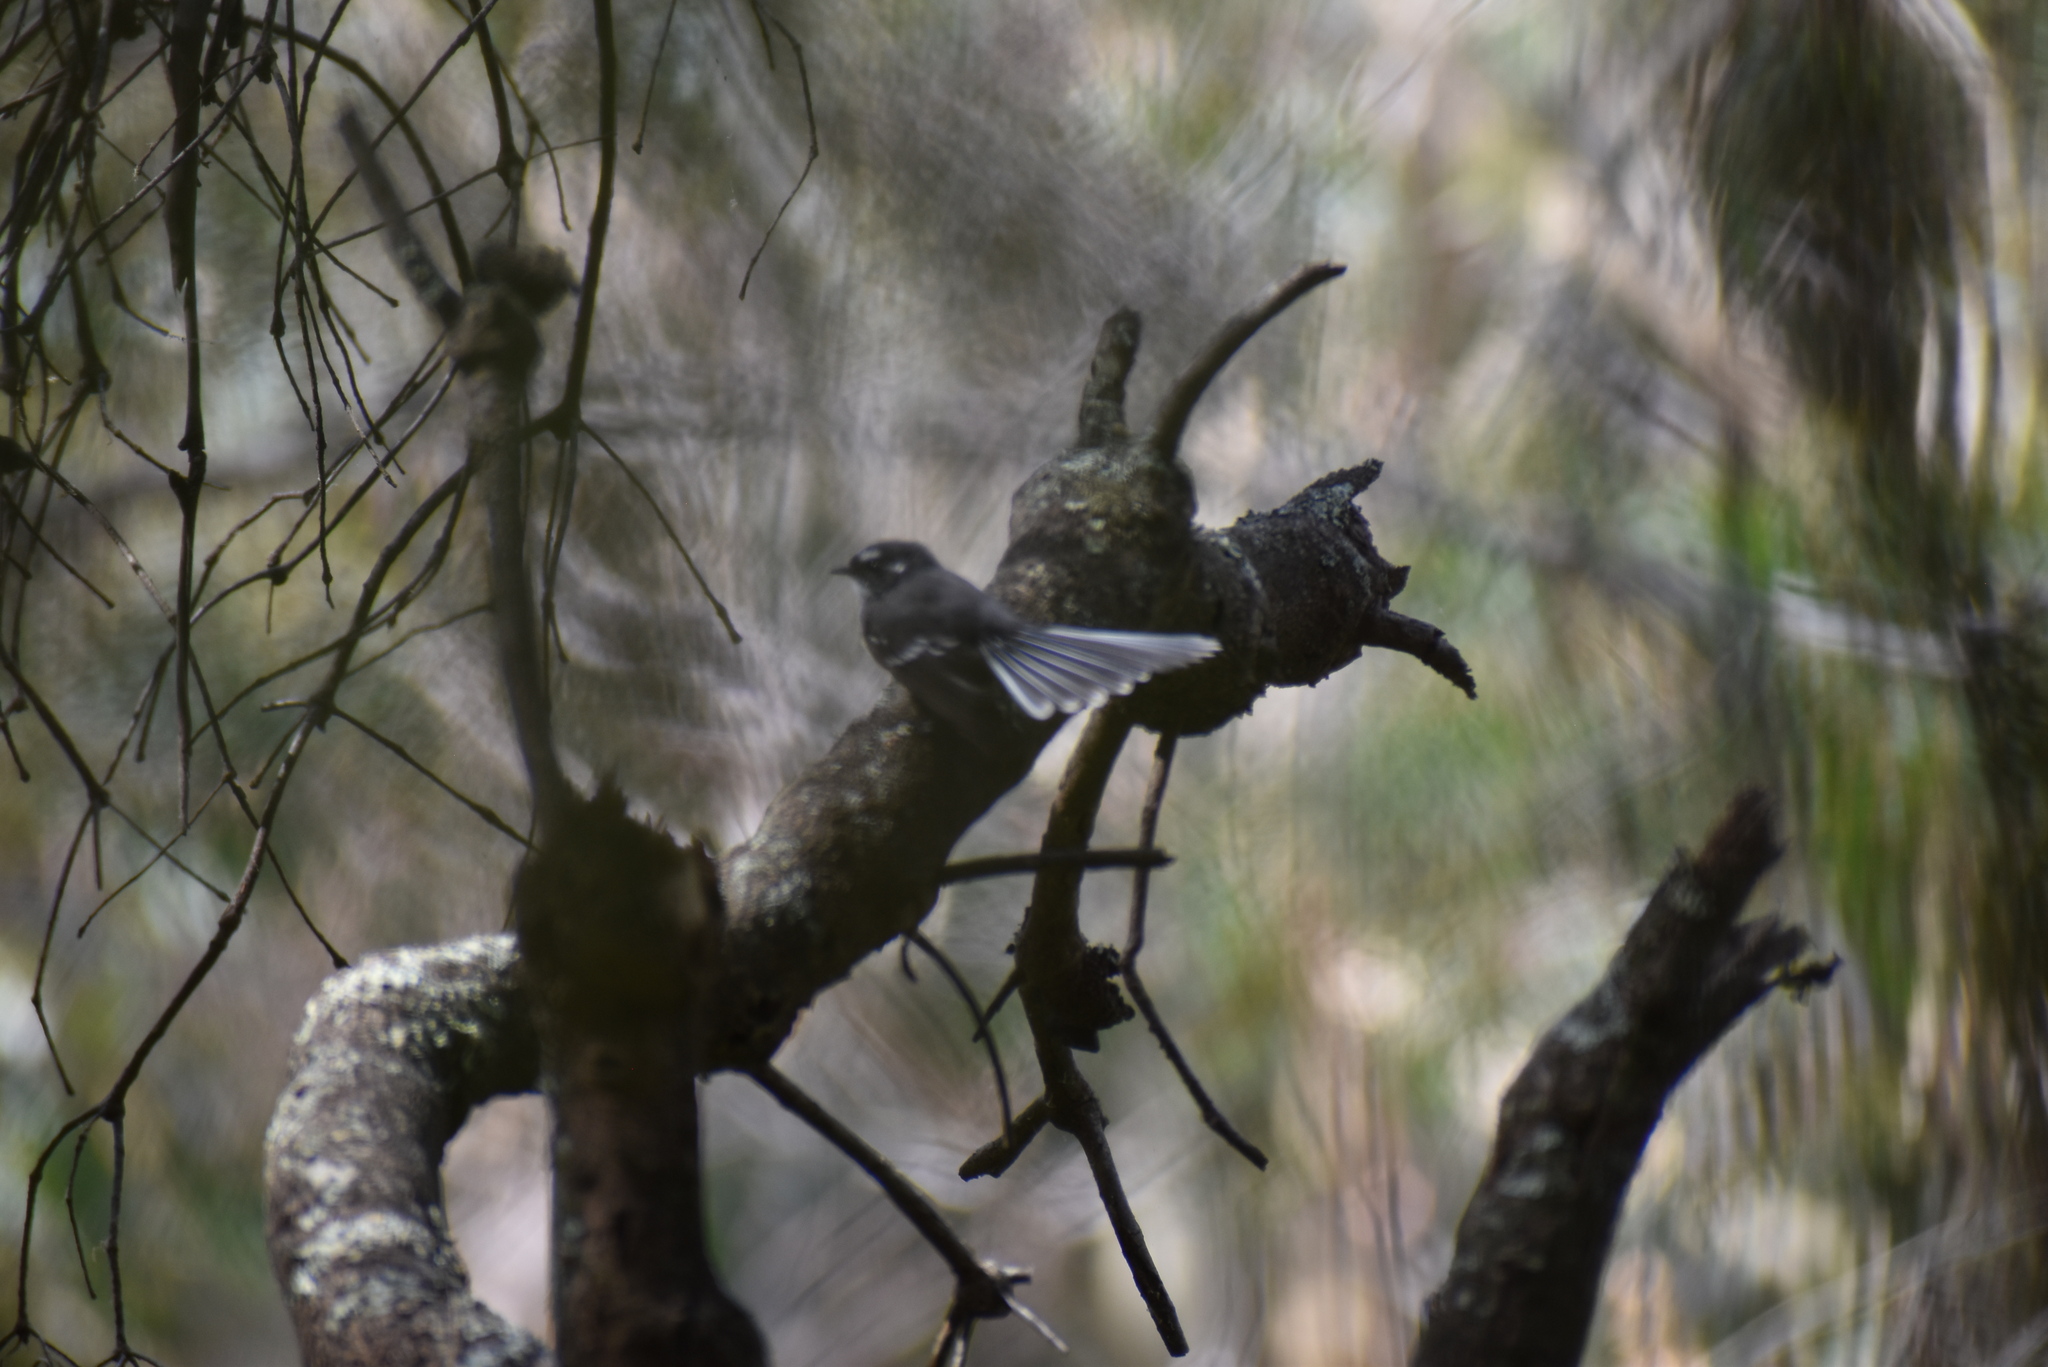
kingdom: Animalia
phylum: Chordata
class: Aves
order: Passeriformes
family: Rhipiduridae
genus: Rhipidura
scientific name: Rhipidura albiscapa
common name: Grey fantail
